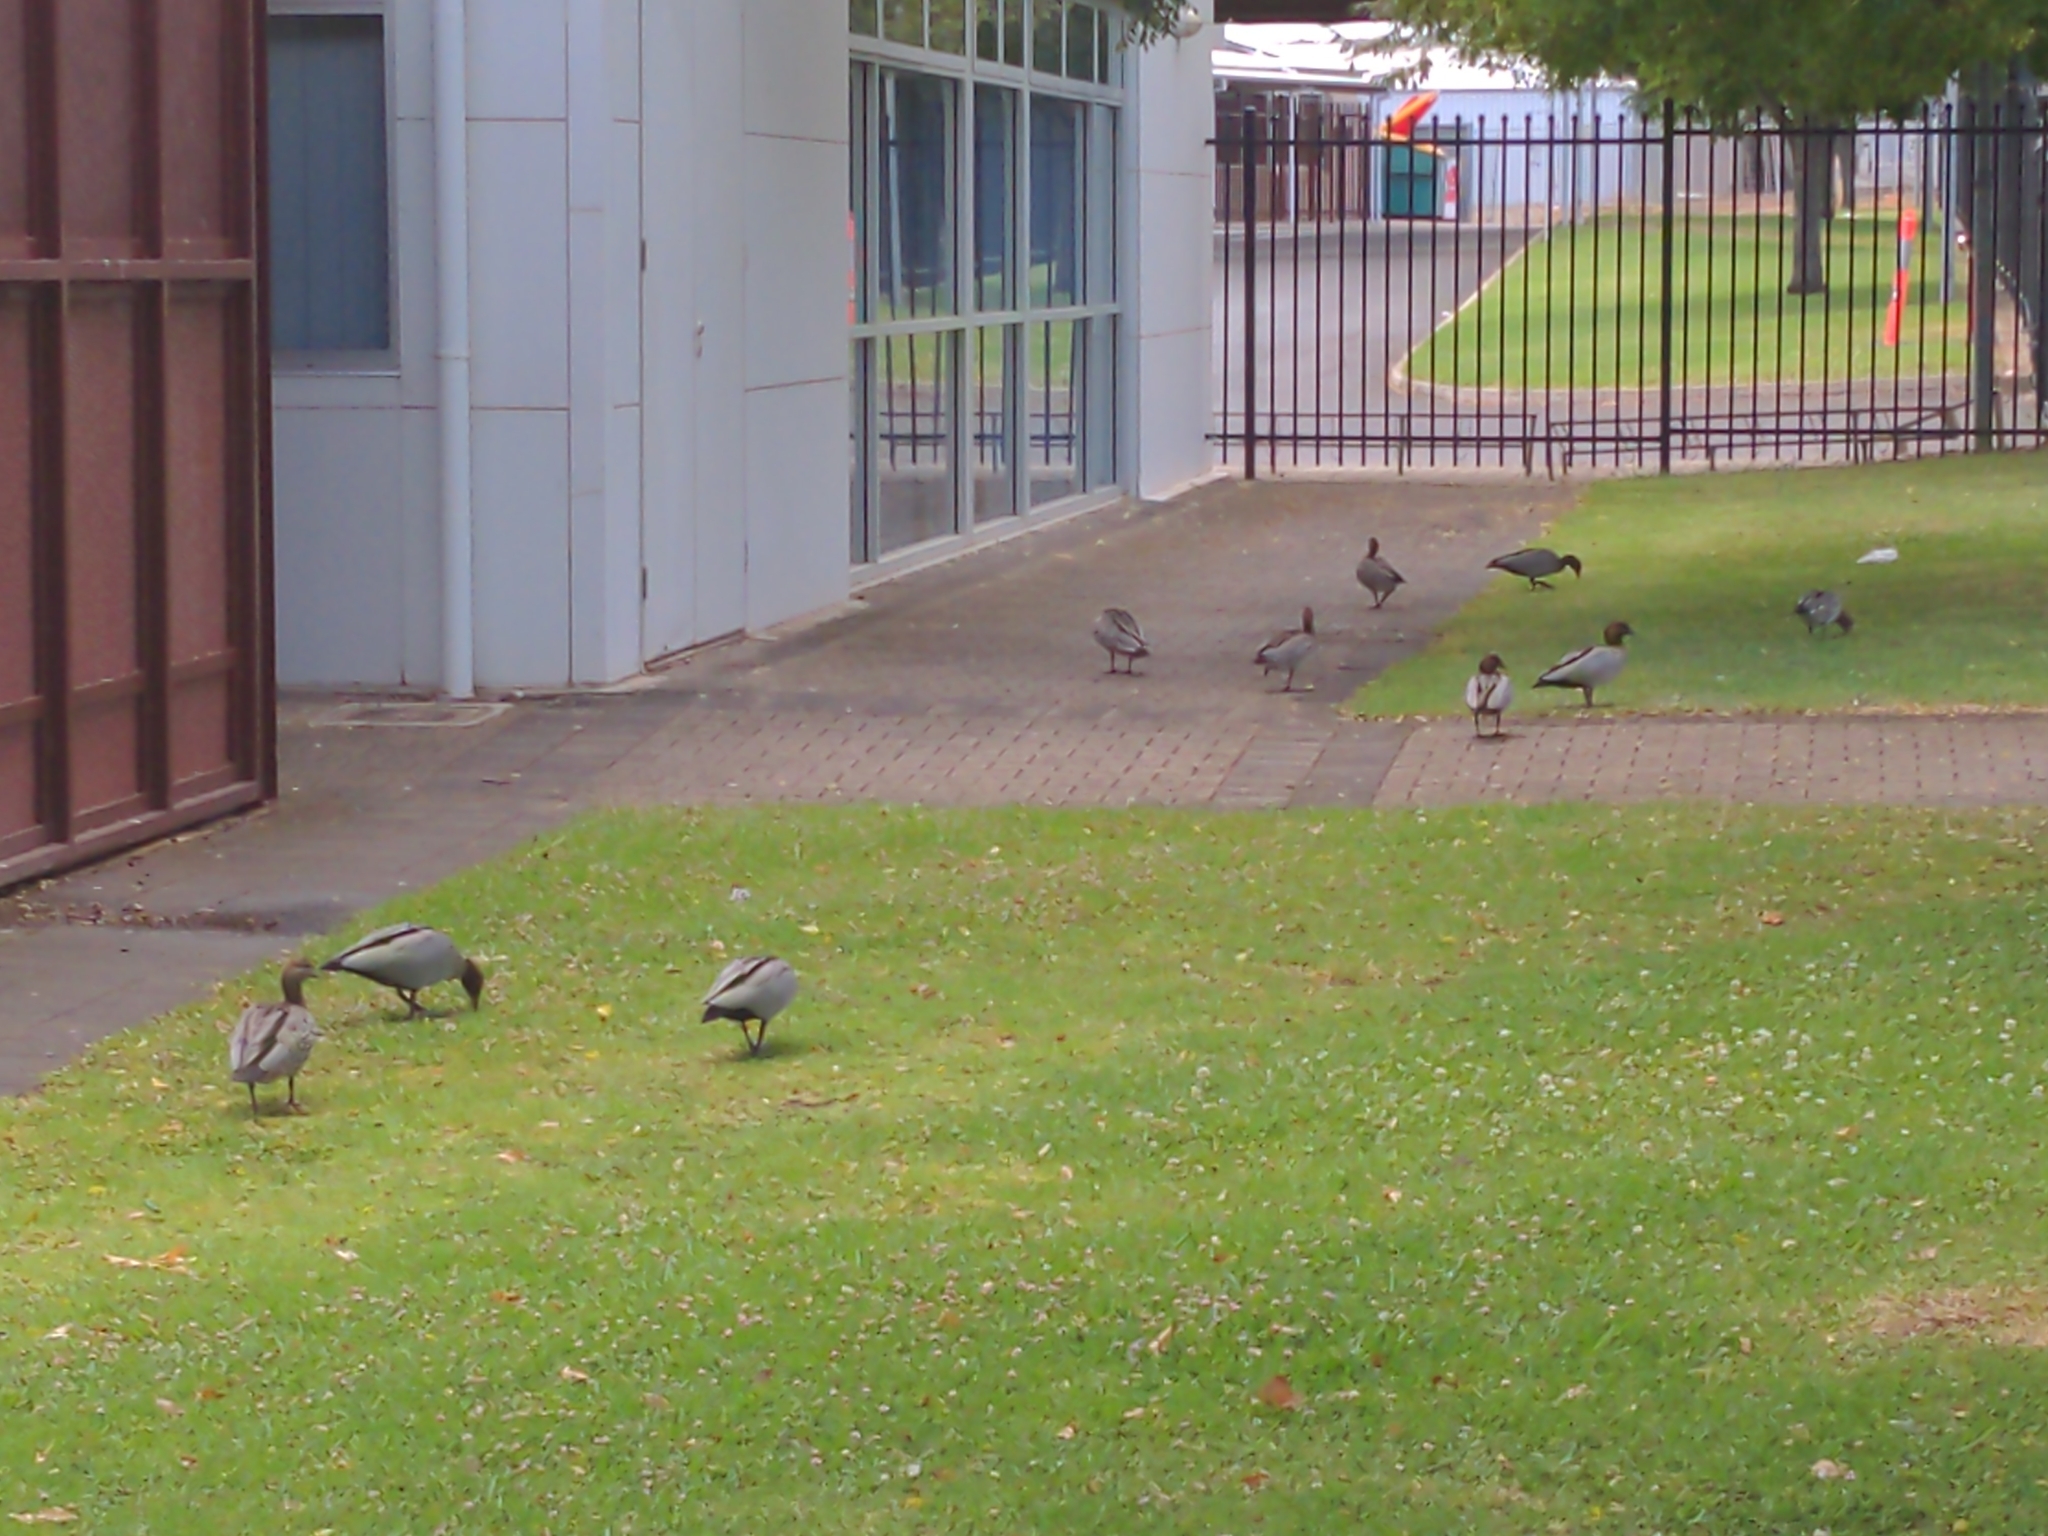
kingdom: Animalia
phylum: Chordata
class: Aves
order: Anseriformes
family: Anatidae
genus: Chenonetta
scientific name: Chenonetta jubata
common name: Maned duck
